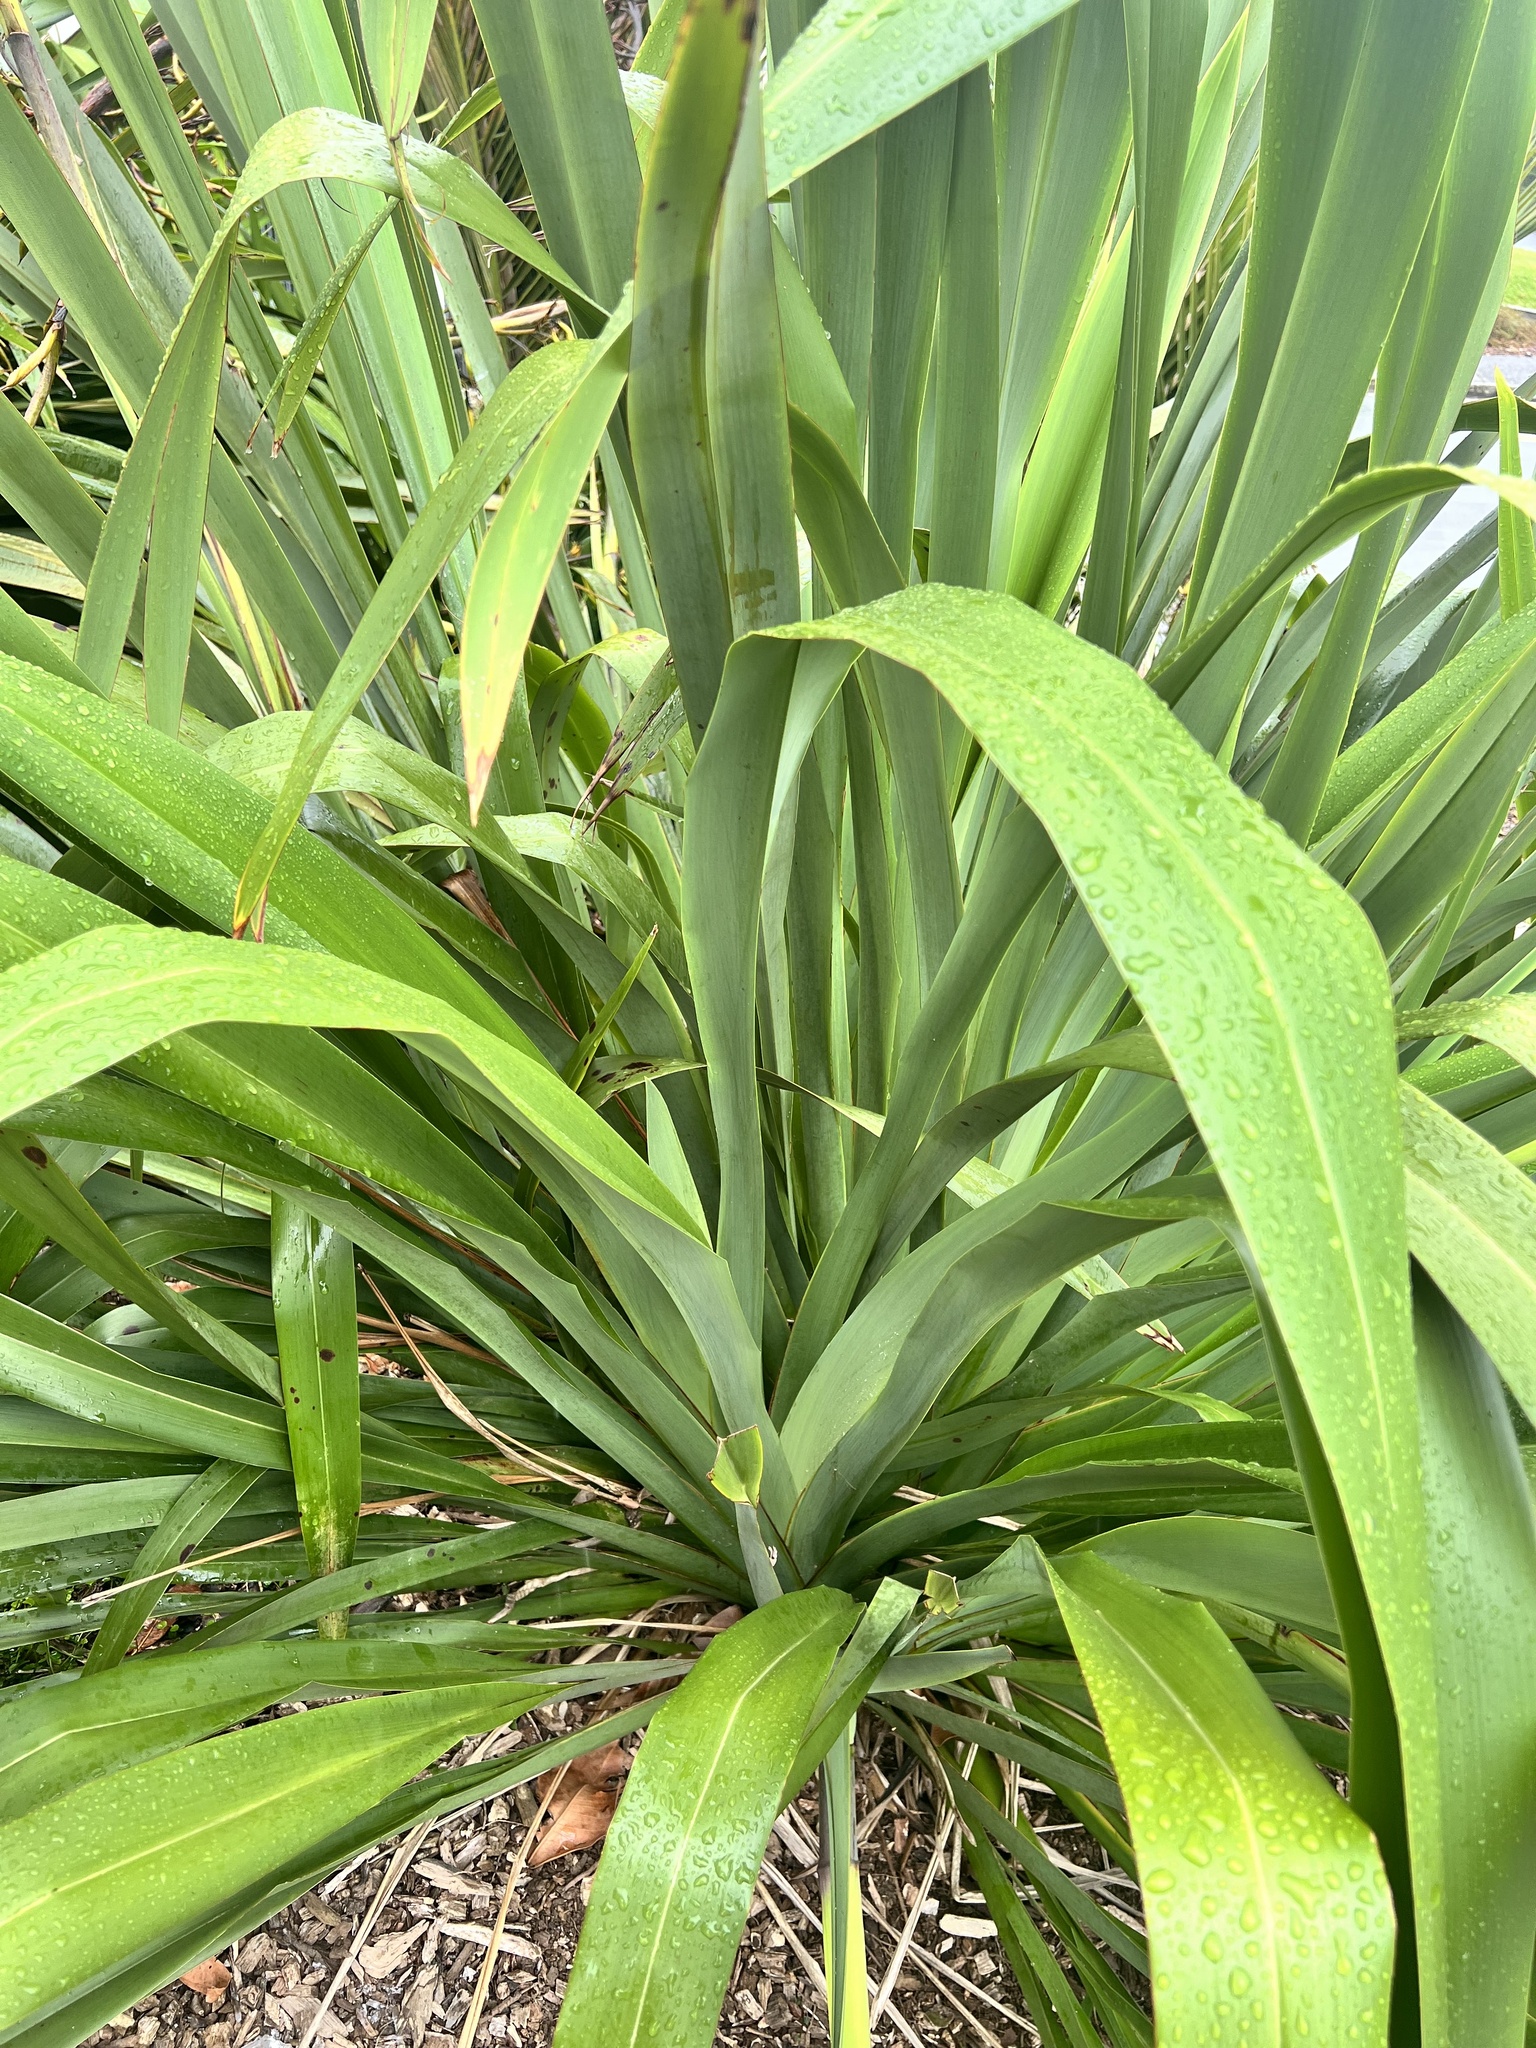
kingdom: Fungi
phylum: Ascomycota
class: Dothideomycetes
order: Mycosphaerellales
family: Mycosphaerellaceae
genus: Zasmidium
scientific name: Zasmidium
